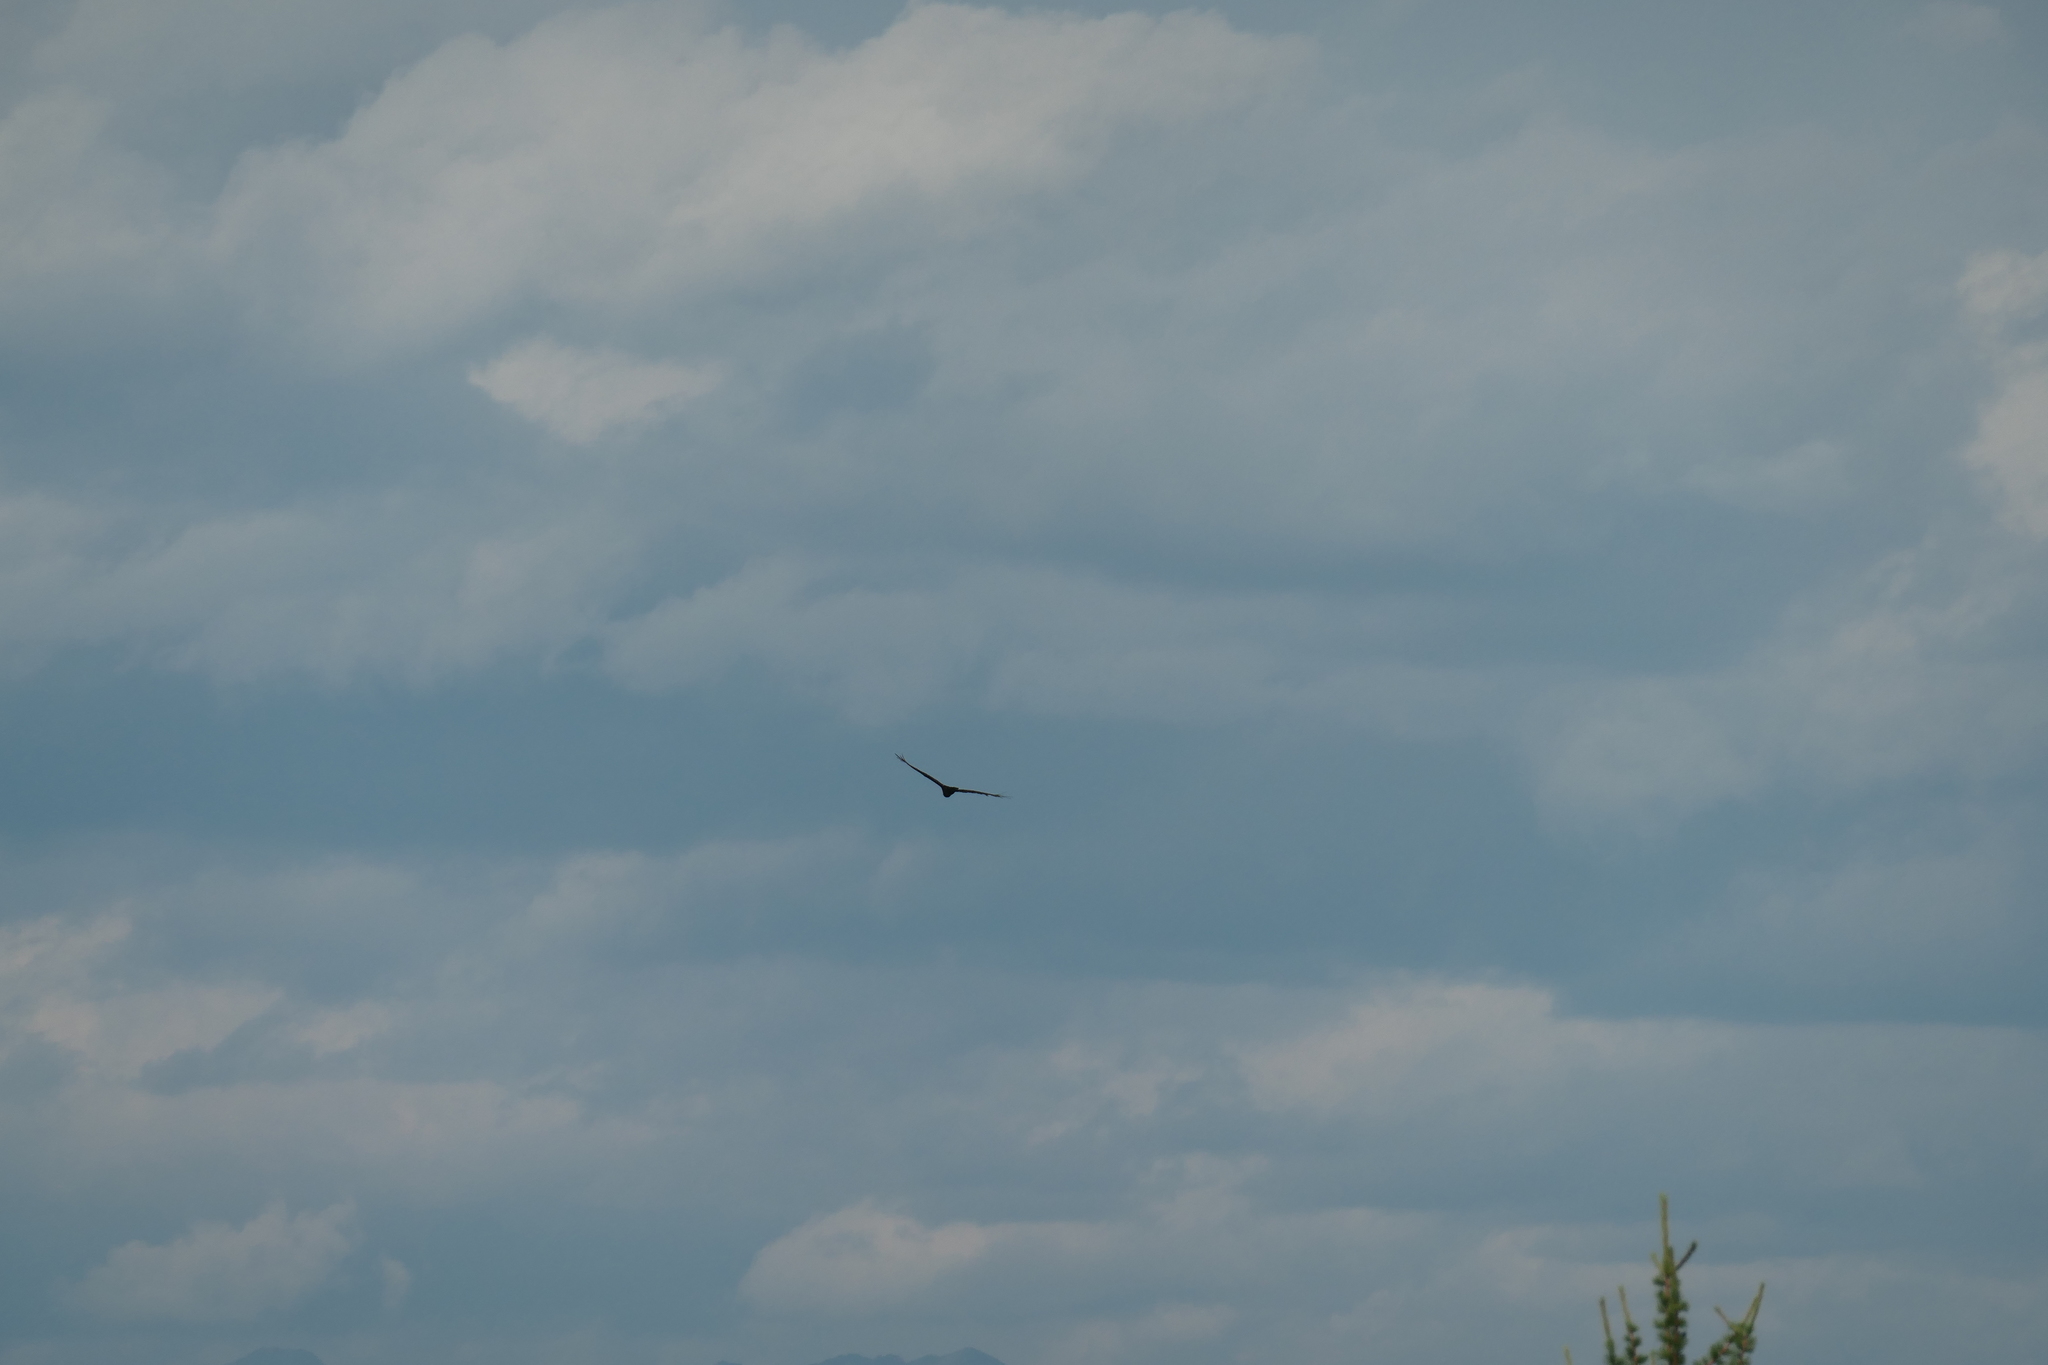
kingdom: Animalia
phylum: Chordata
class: Aves
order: Passeriformes
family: Corvidae
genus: Corvus
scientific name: Corvus corax
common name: Common raven
